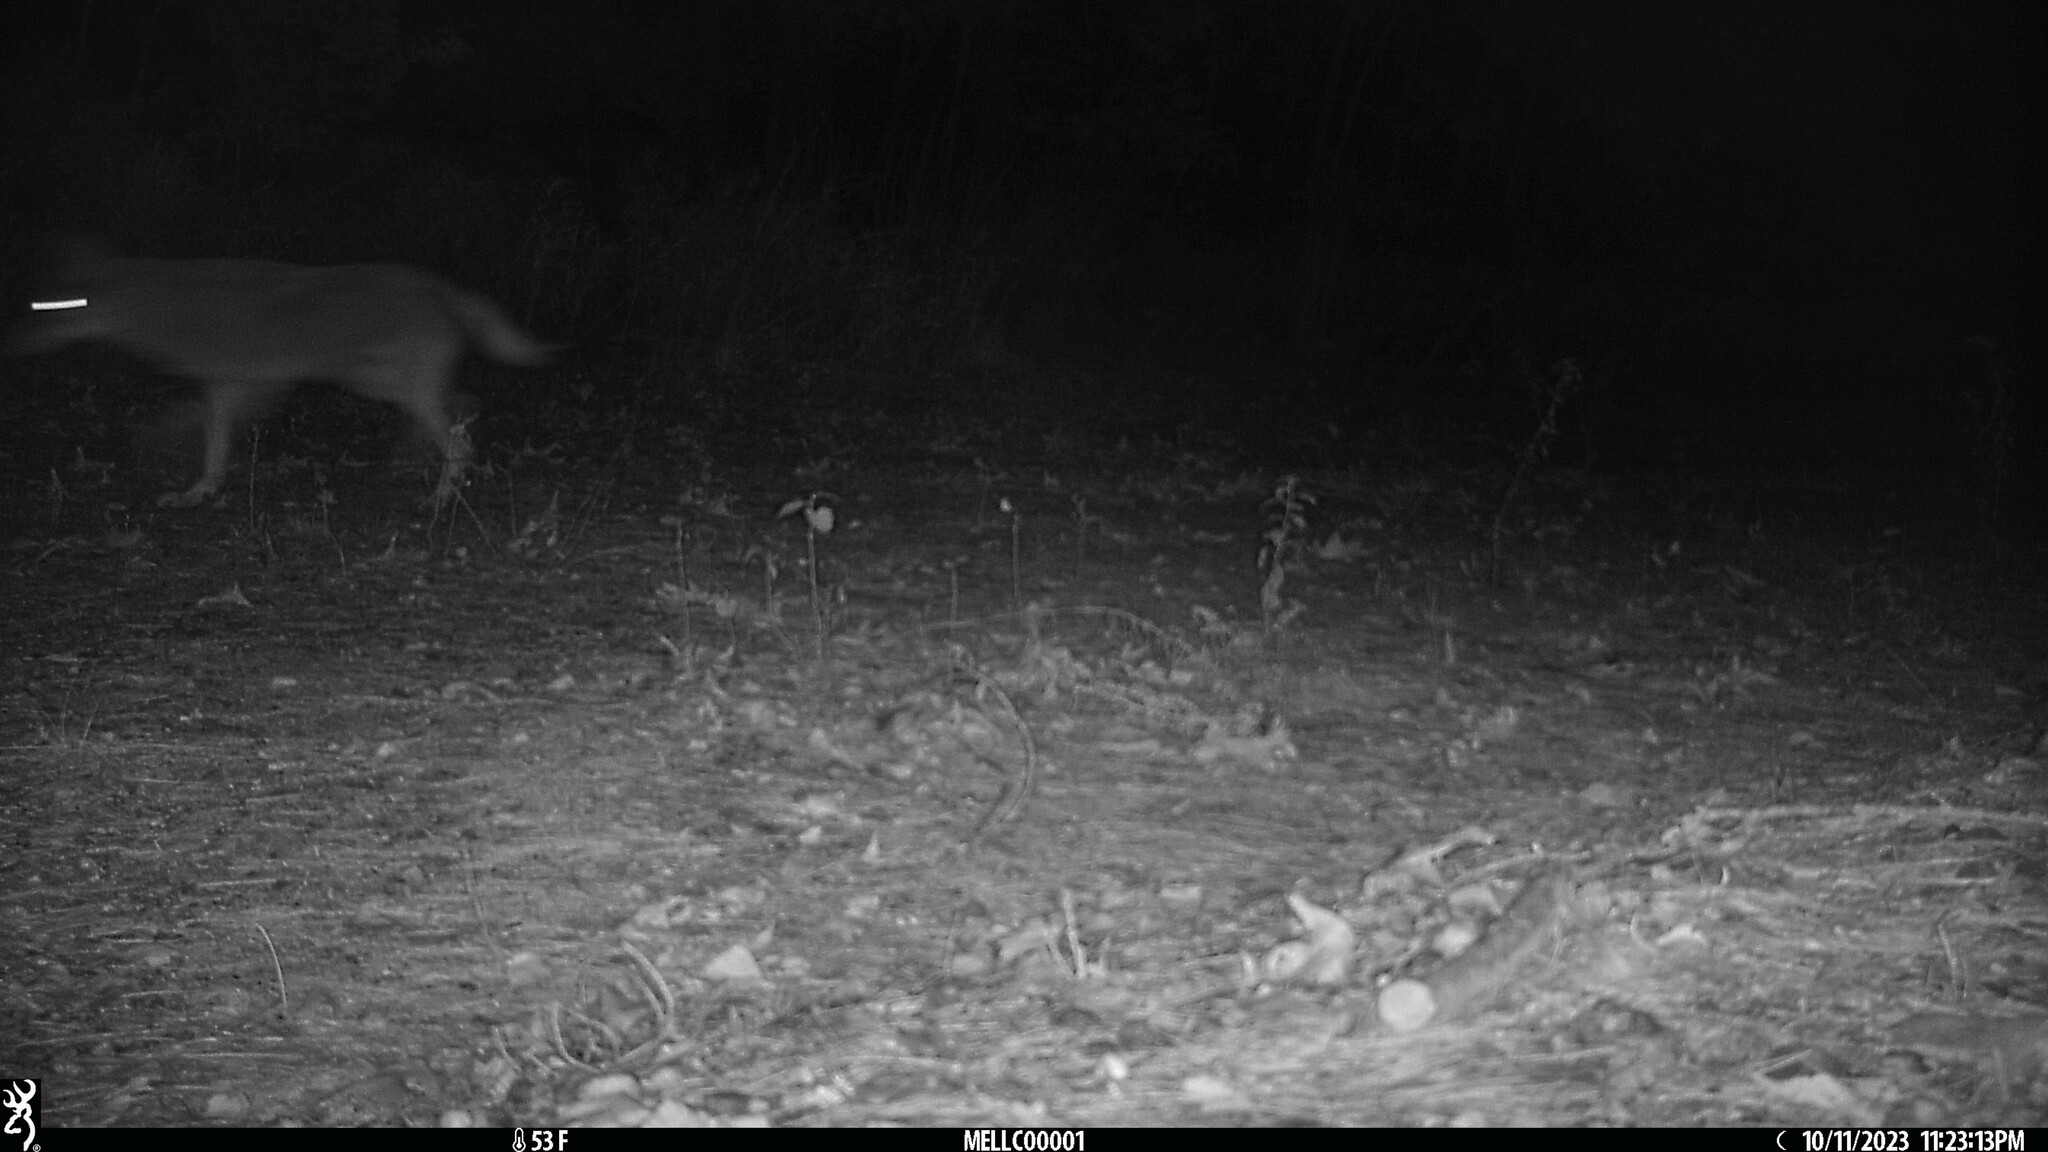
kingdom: Animalia
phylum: Chordata
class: Mammalia
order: Carnivora
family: Canidae
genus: Canis
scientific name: Canis latrans
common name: Coyote
